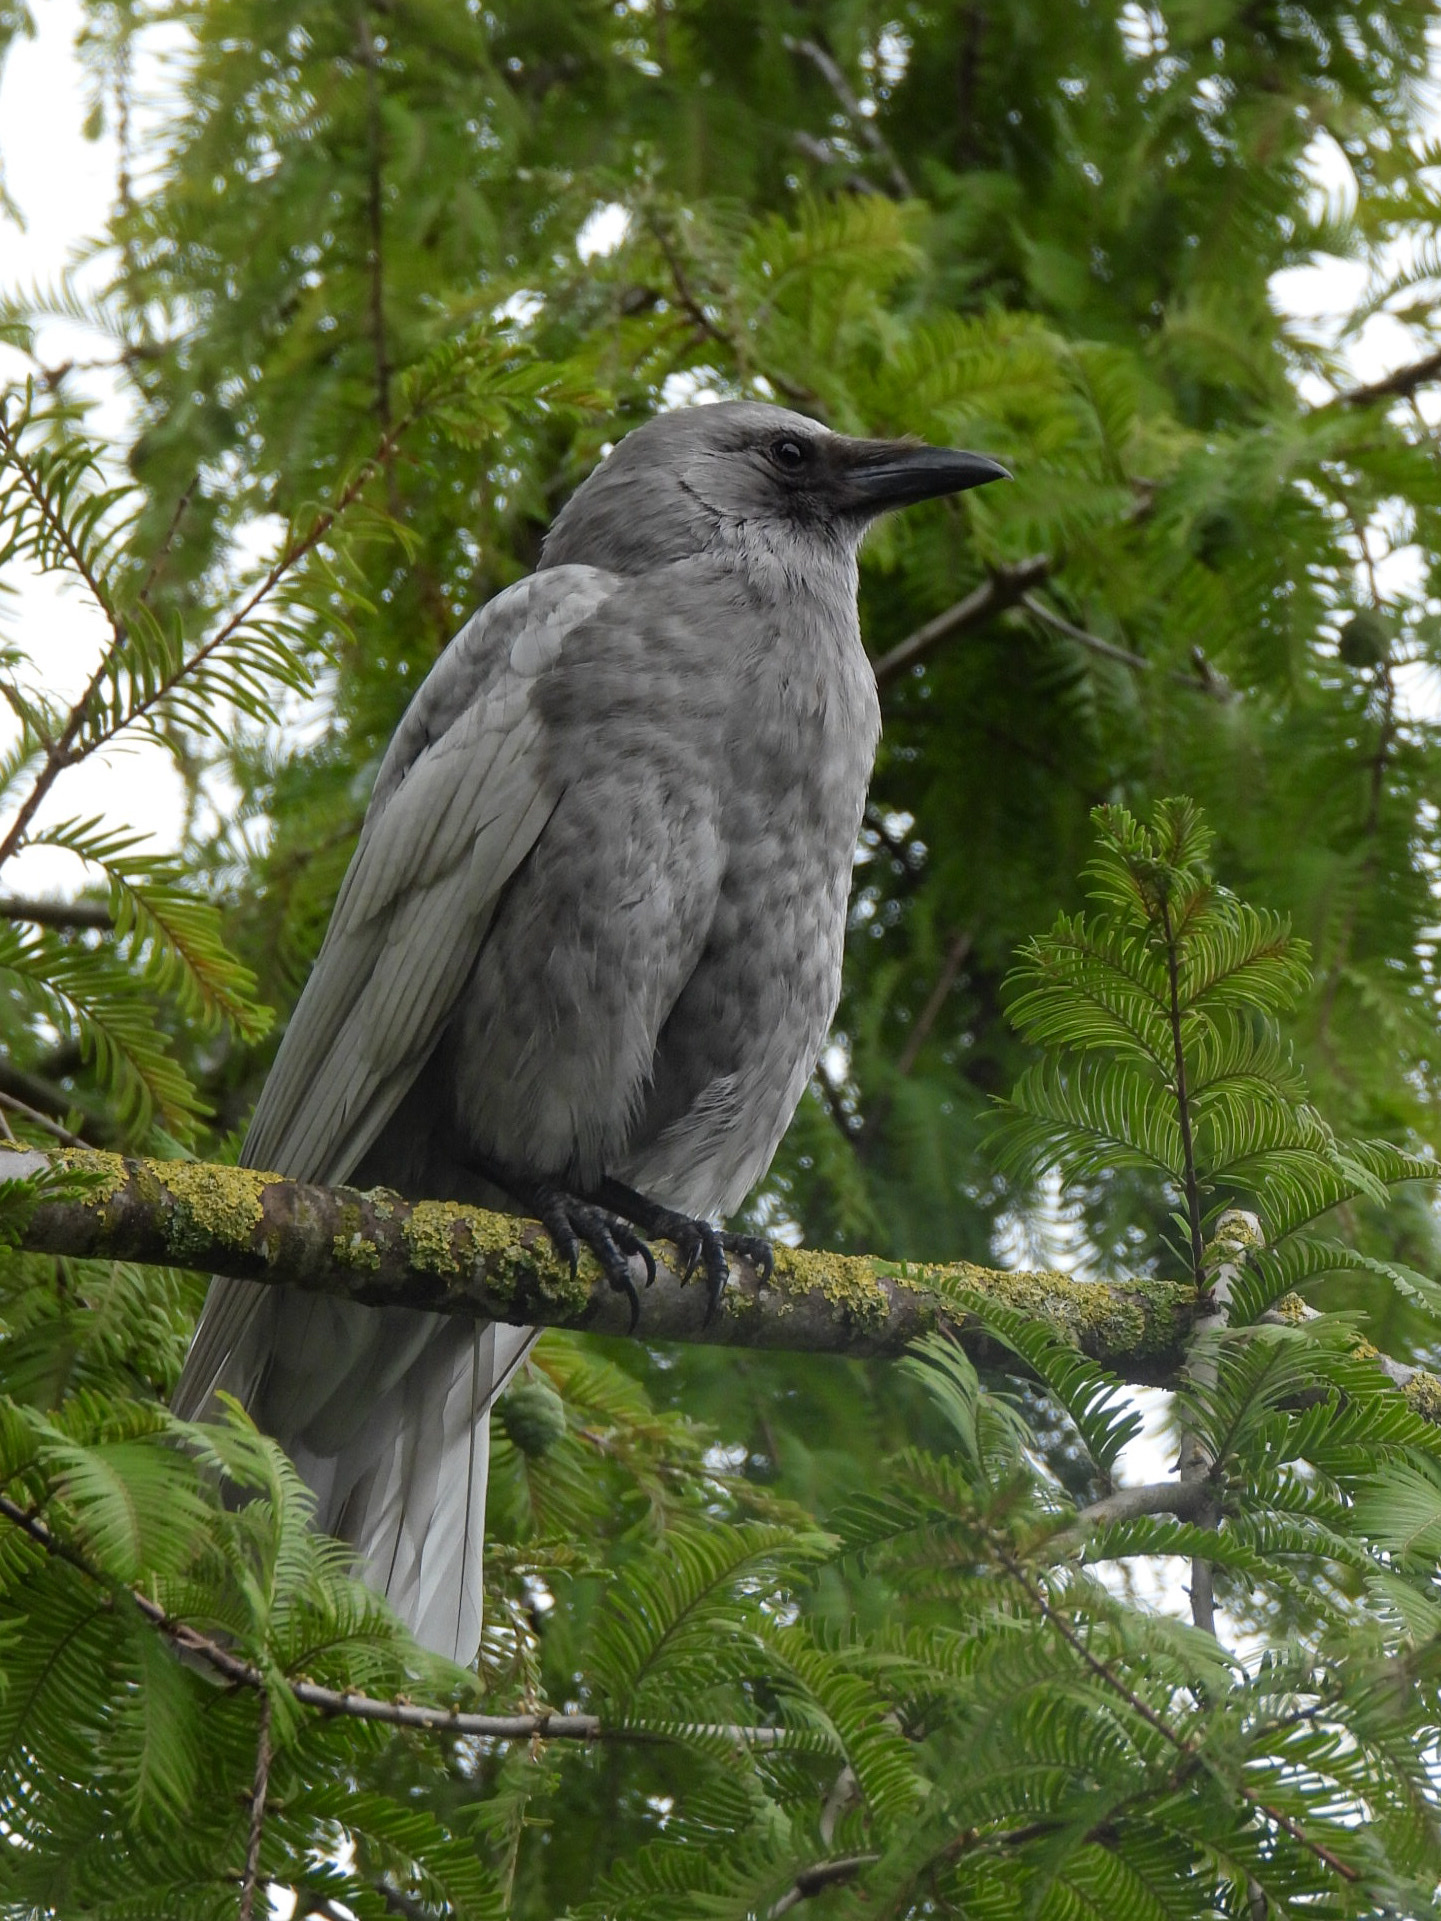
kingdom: Animalia
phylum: Chordata
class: Aves
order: Passeriformes
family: Corvidae
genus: Corvus
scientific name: Corvus brachyrhynchos
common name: American crow
